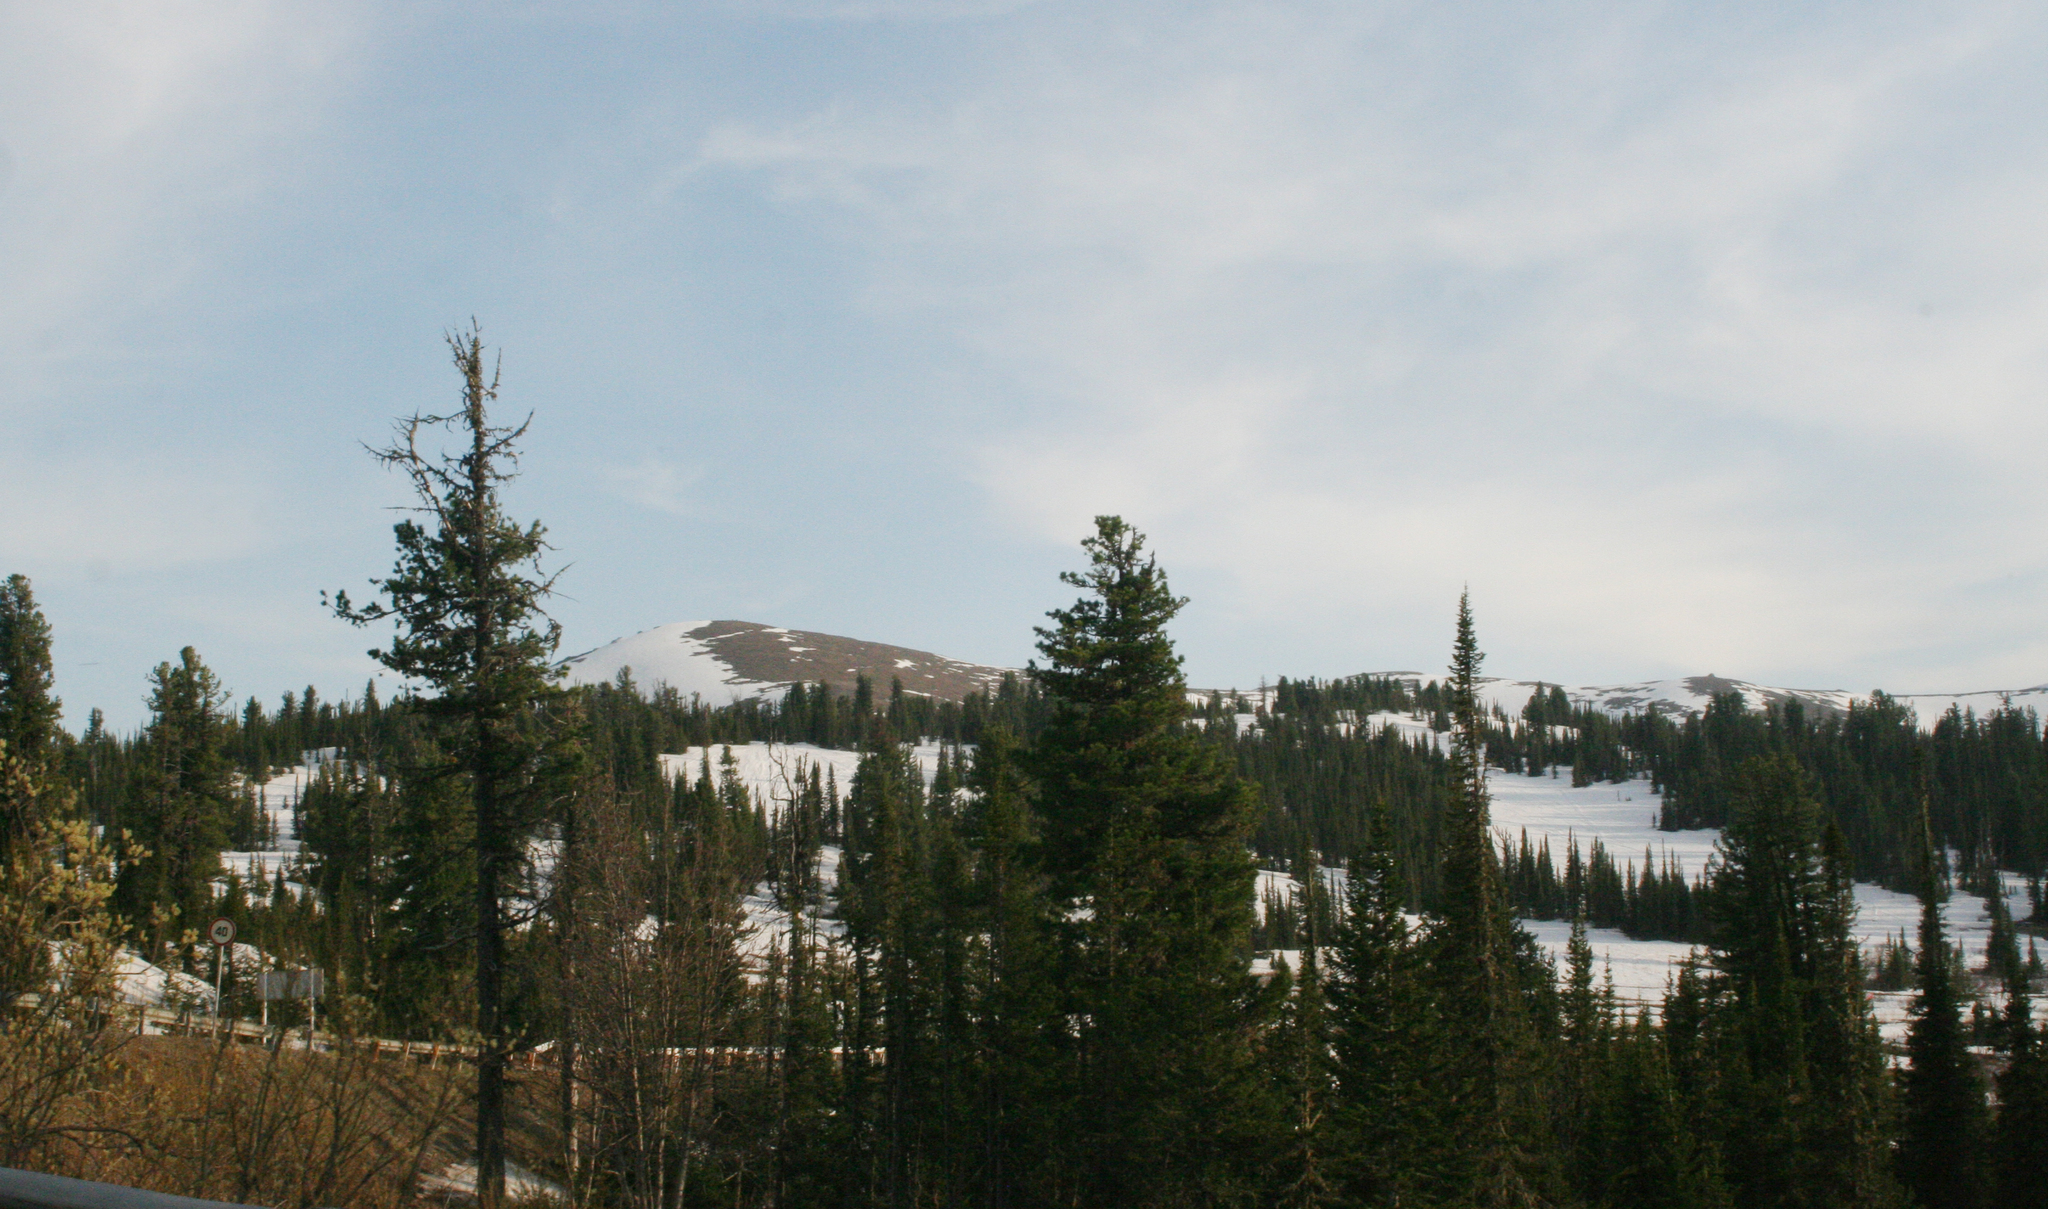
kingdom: Plantae
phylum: Tracheophyta
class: Pinopsida
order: Pinales
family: Pinaceae
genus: Abies
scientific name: Abies sibirica
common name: Siberian fir
